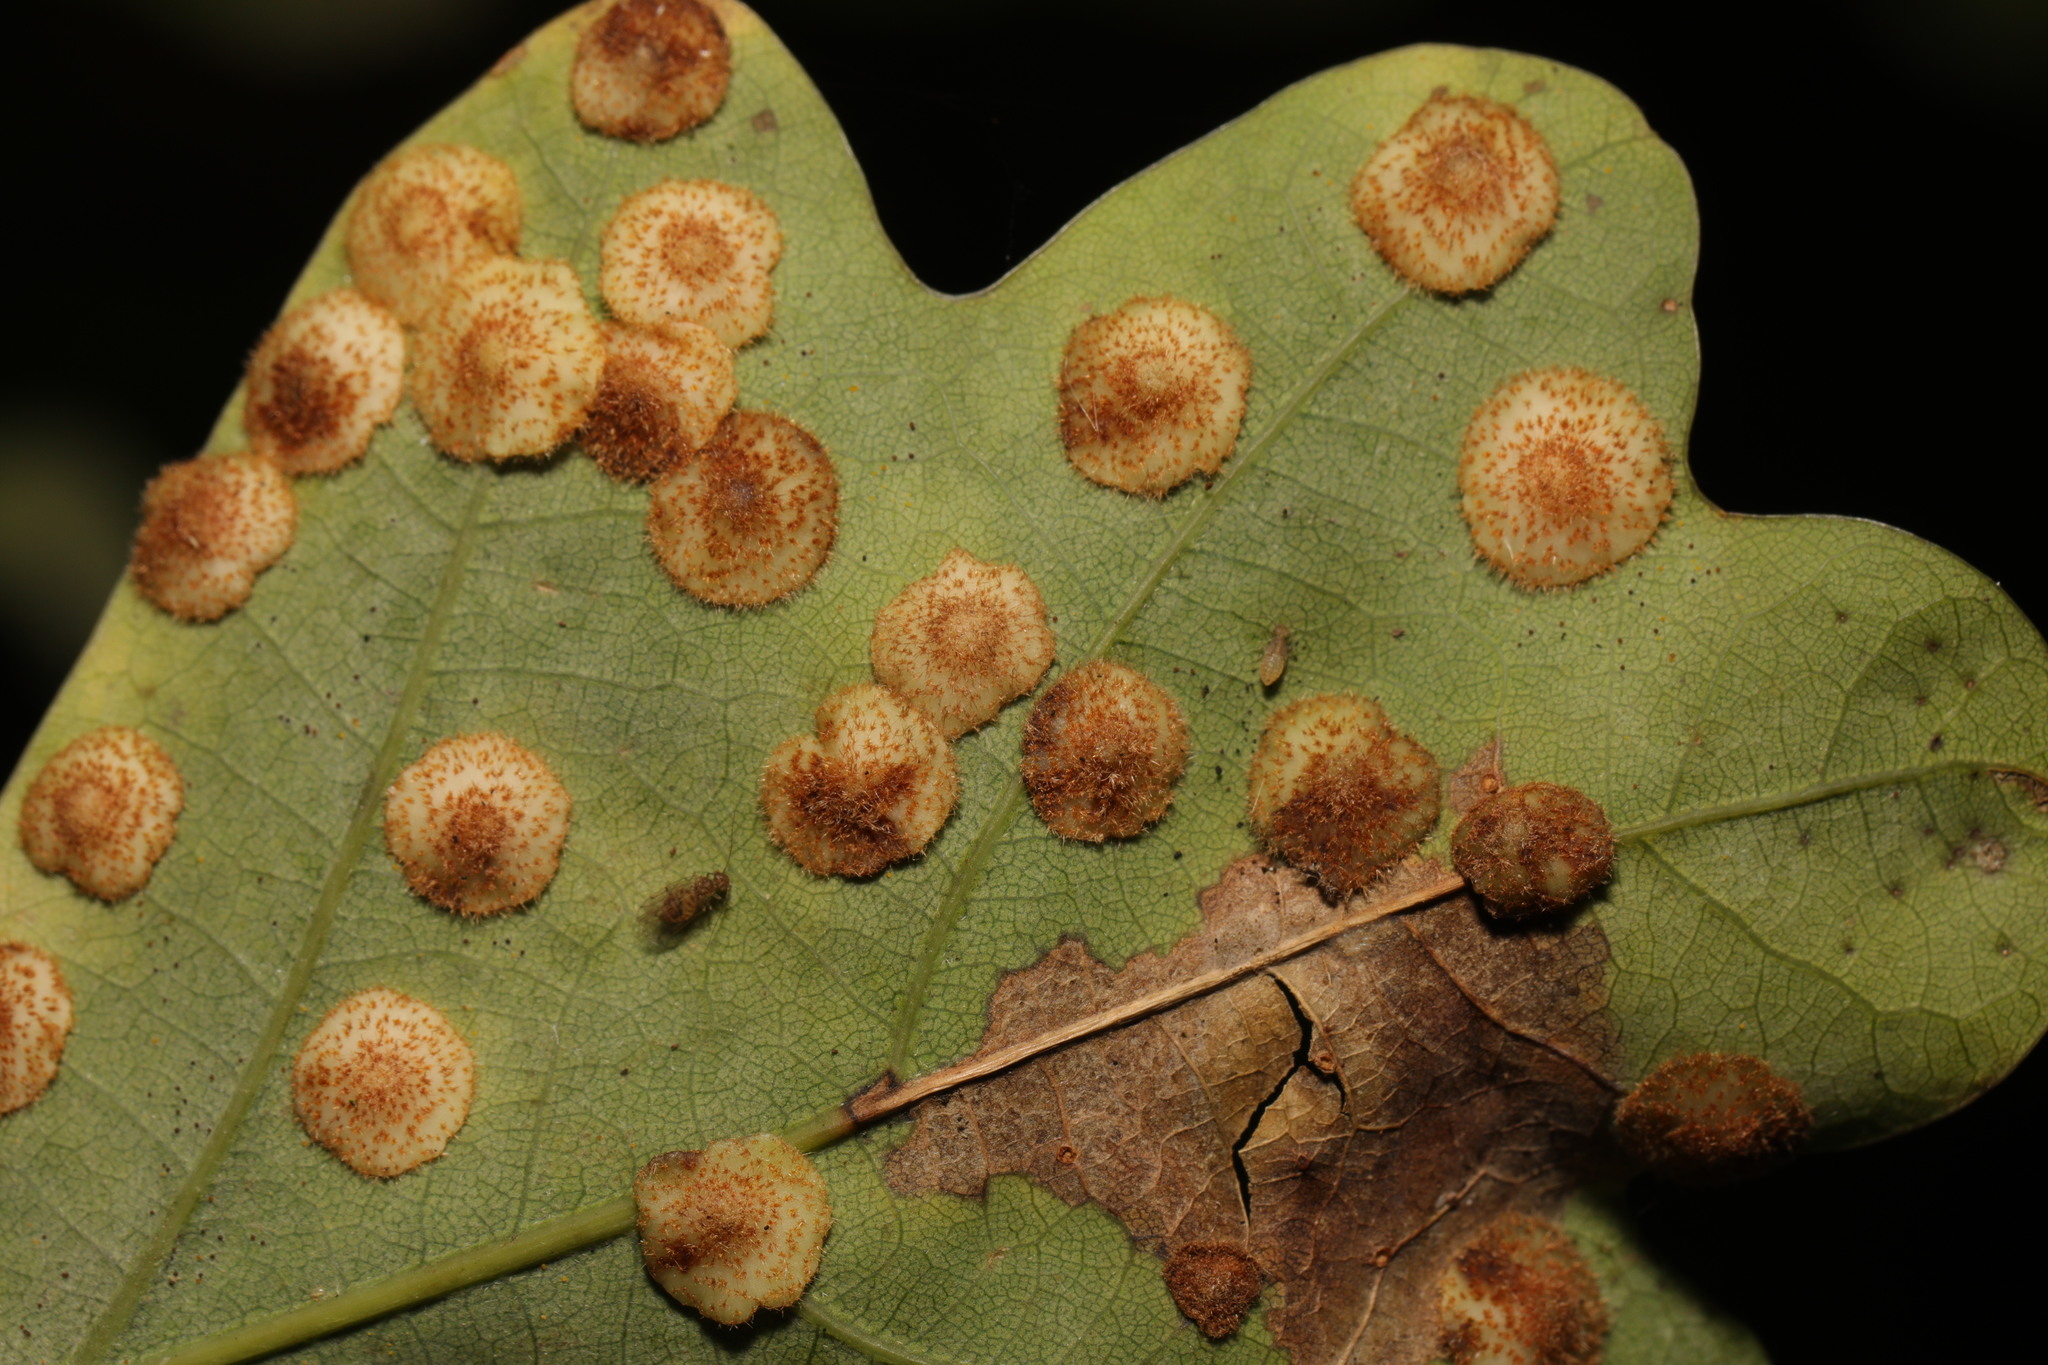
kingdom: Animalia
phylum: Arthropoda
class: Insecta
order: Hymenoptera
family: Cynipidae
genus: Neuroterus
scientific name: Neuroterus quercusbaccarum
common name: Common spangle gall
